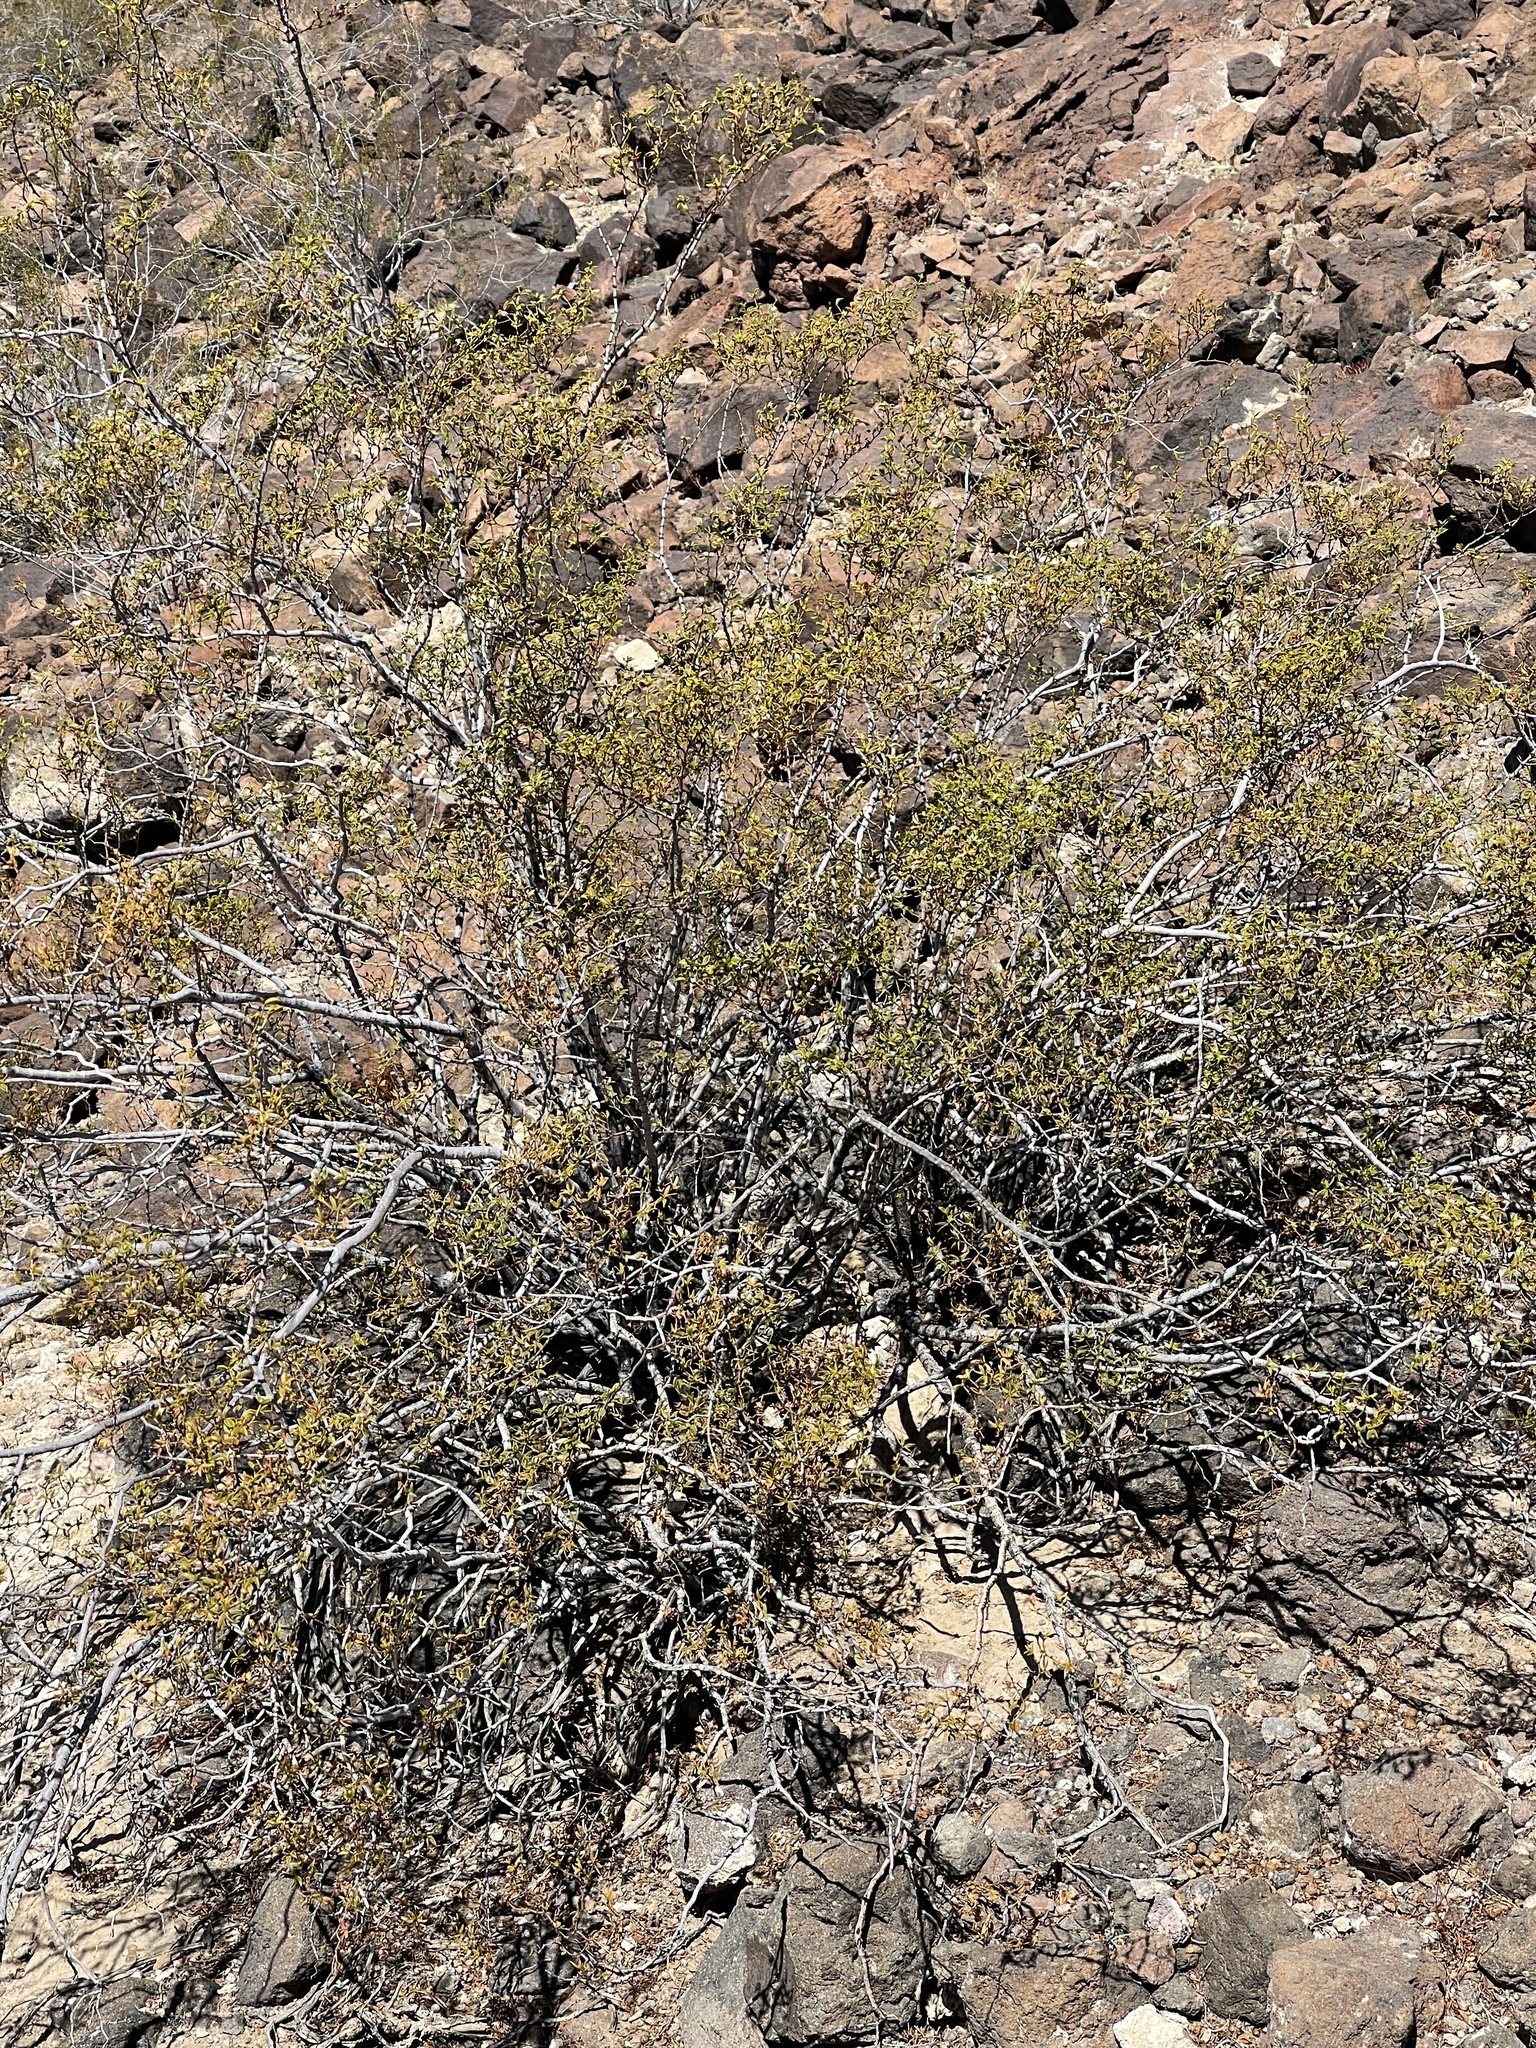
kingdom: Plantae
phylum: Tracheophyta
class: Magnoliopsida
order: Zygophyllales
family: Zygophyllaceae
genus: Larrea
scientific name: Larrea tridentata
